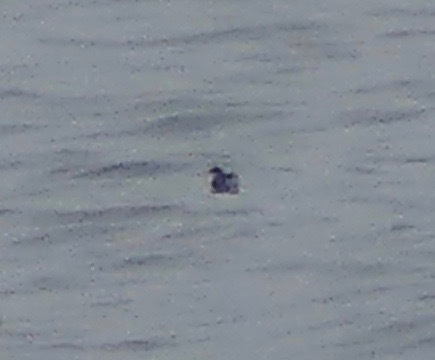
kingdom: Animalia
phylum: Chordata
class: Aves
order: Procellariiformes
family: Pelecanoididae
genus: Pelecanoides
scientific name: Pelecanoides garnotii
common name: Peruvian diving-petrel
